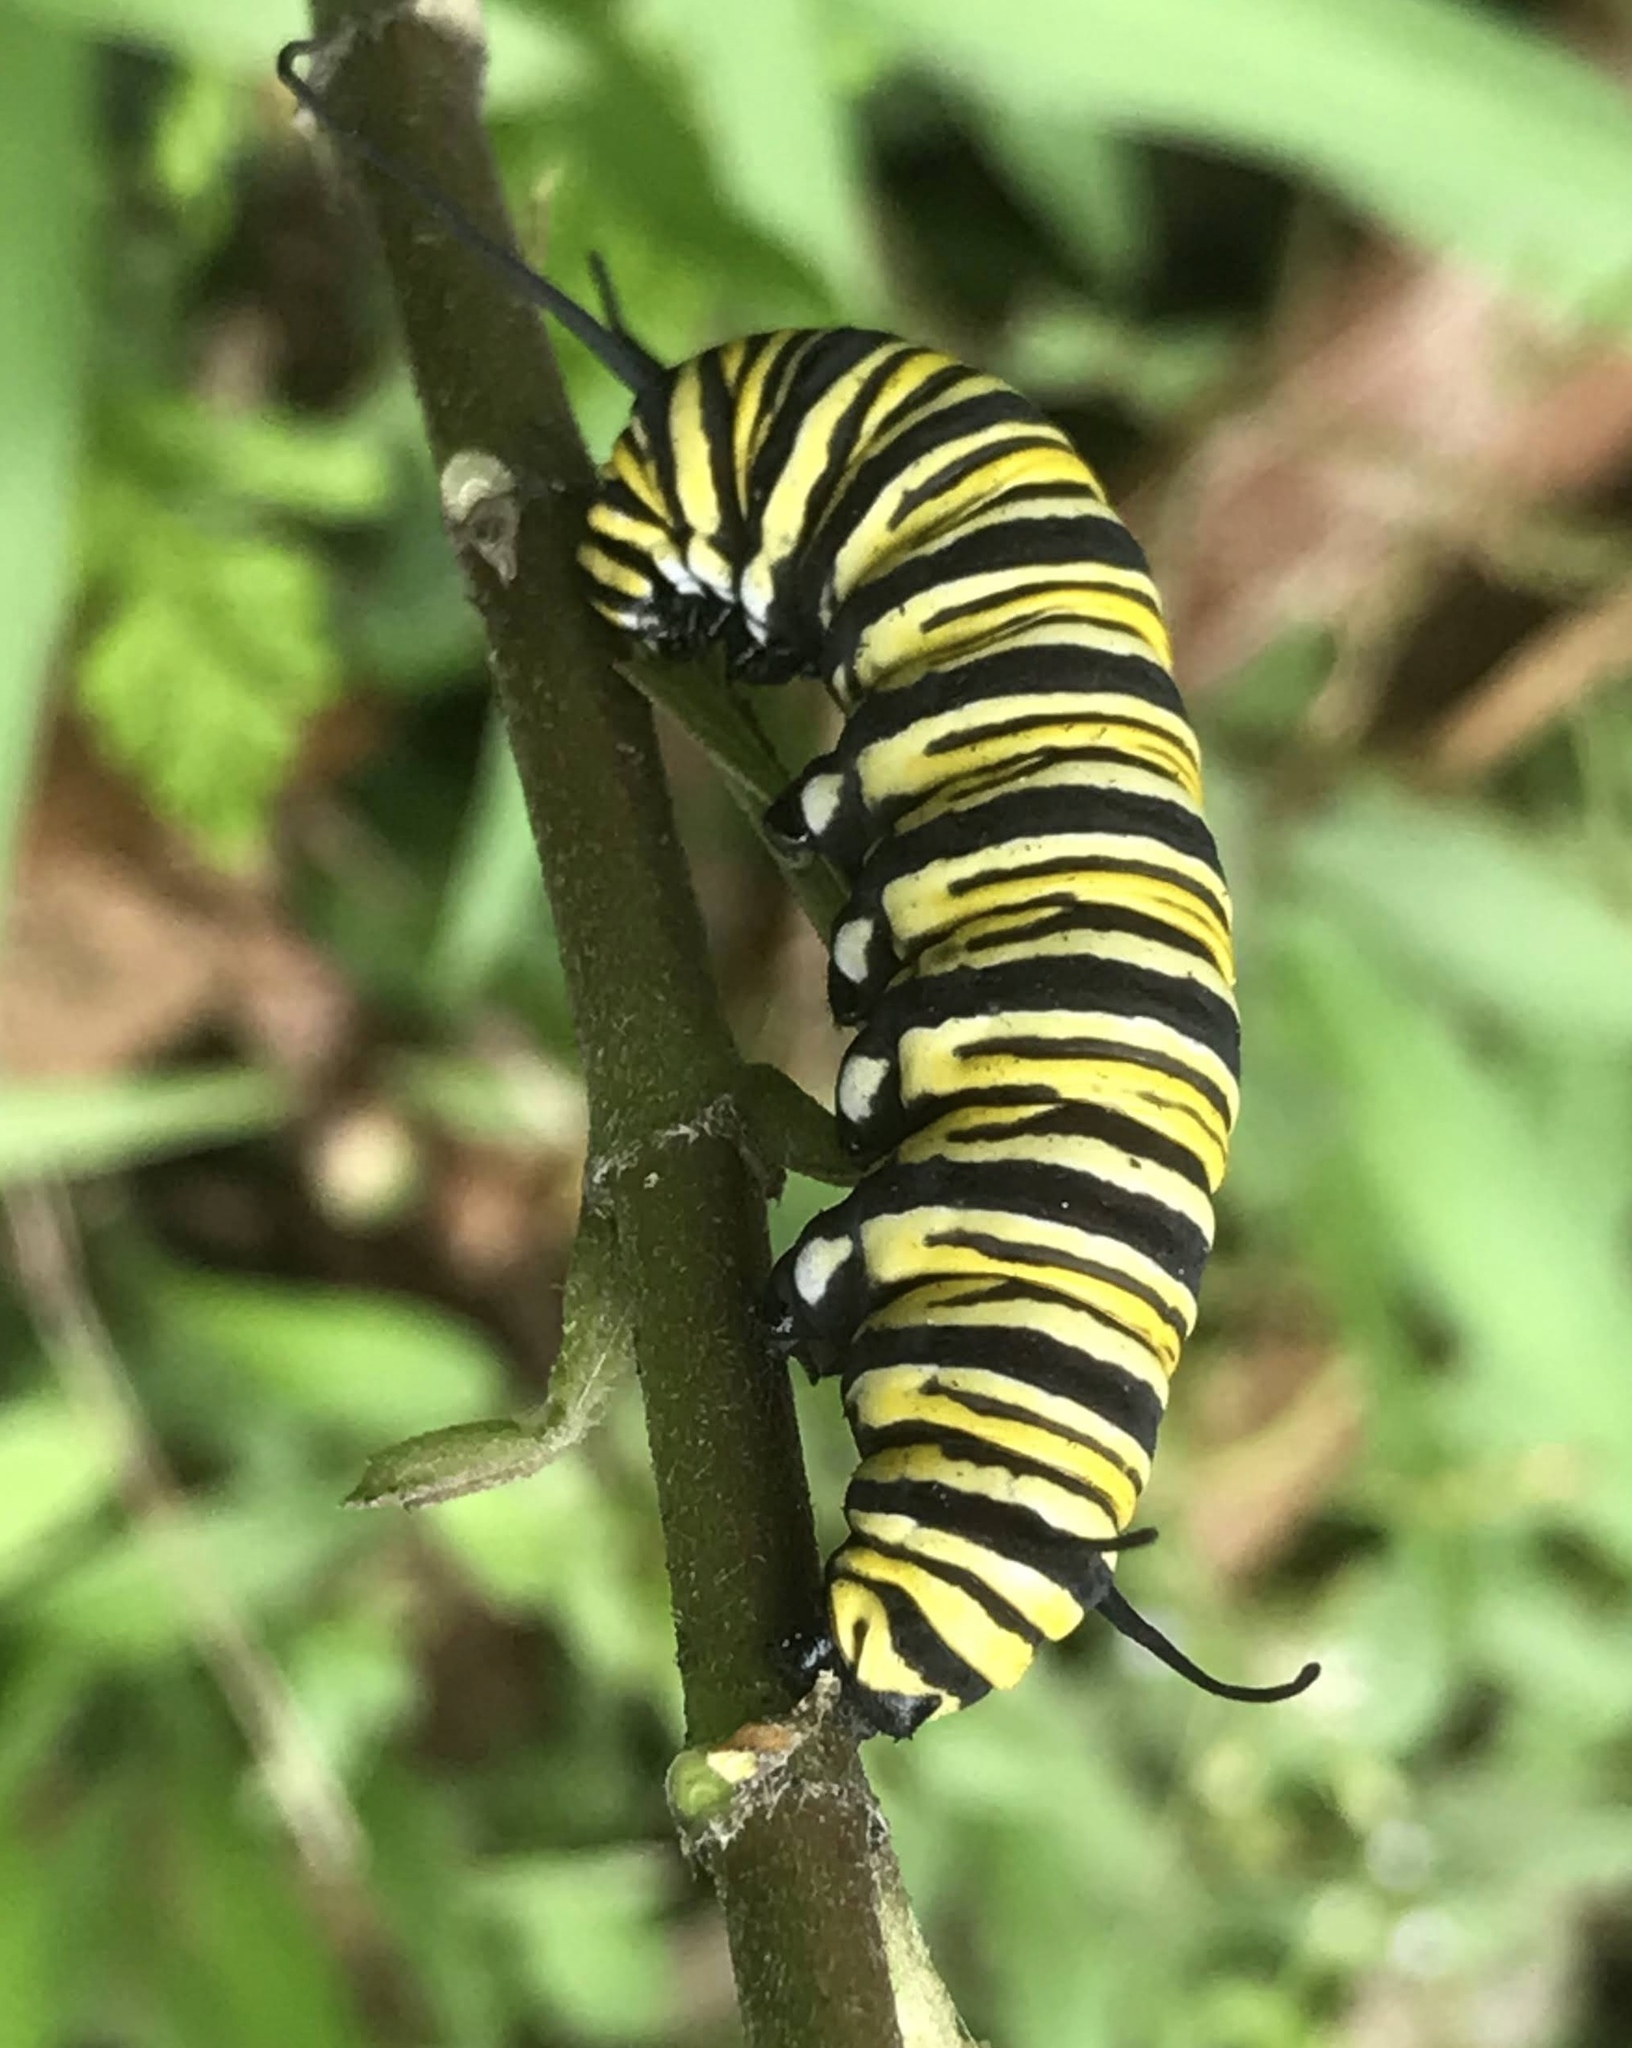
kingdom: Animalia
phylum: Arthropoda
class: Insecta
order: Lepidoptera
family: Nymphalidae
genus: Danaus
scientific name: Danaus plexippus
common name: Monarch
